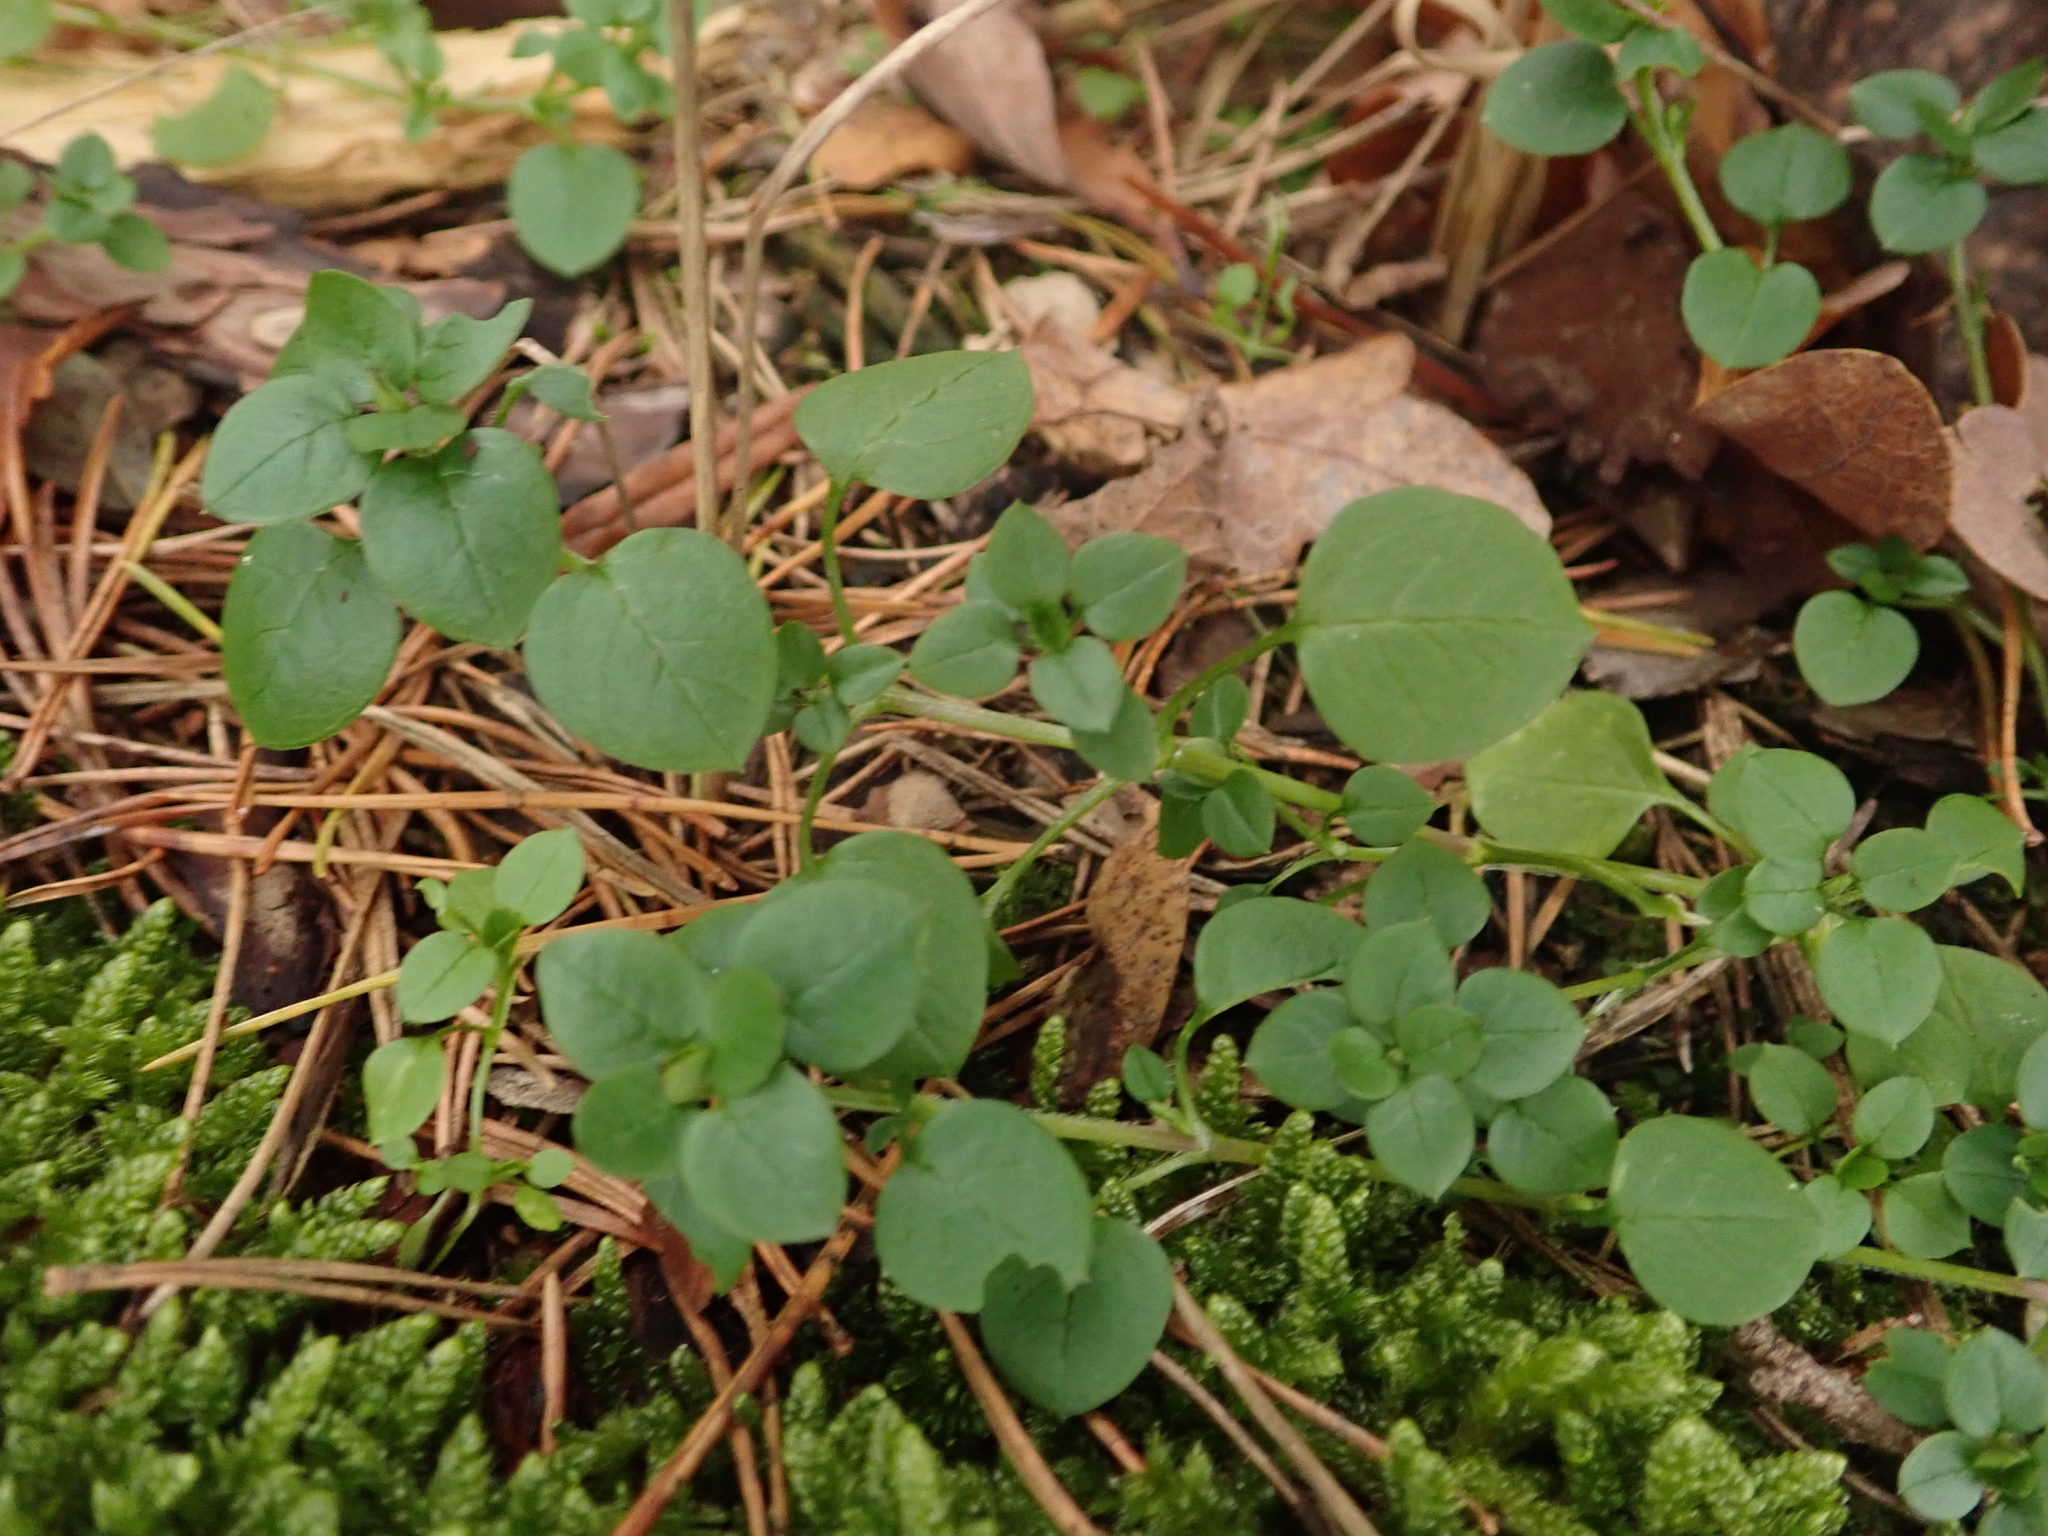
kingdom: Plantae
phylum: Tracheophyta
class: Magnoliopsida
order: Caryophyllales
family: Caryophyllaceae
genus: Stellaria
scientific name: Stellaria media
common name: Common chickweed
